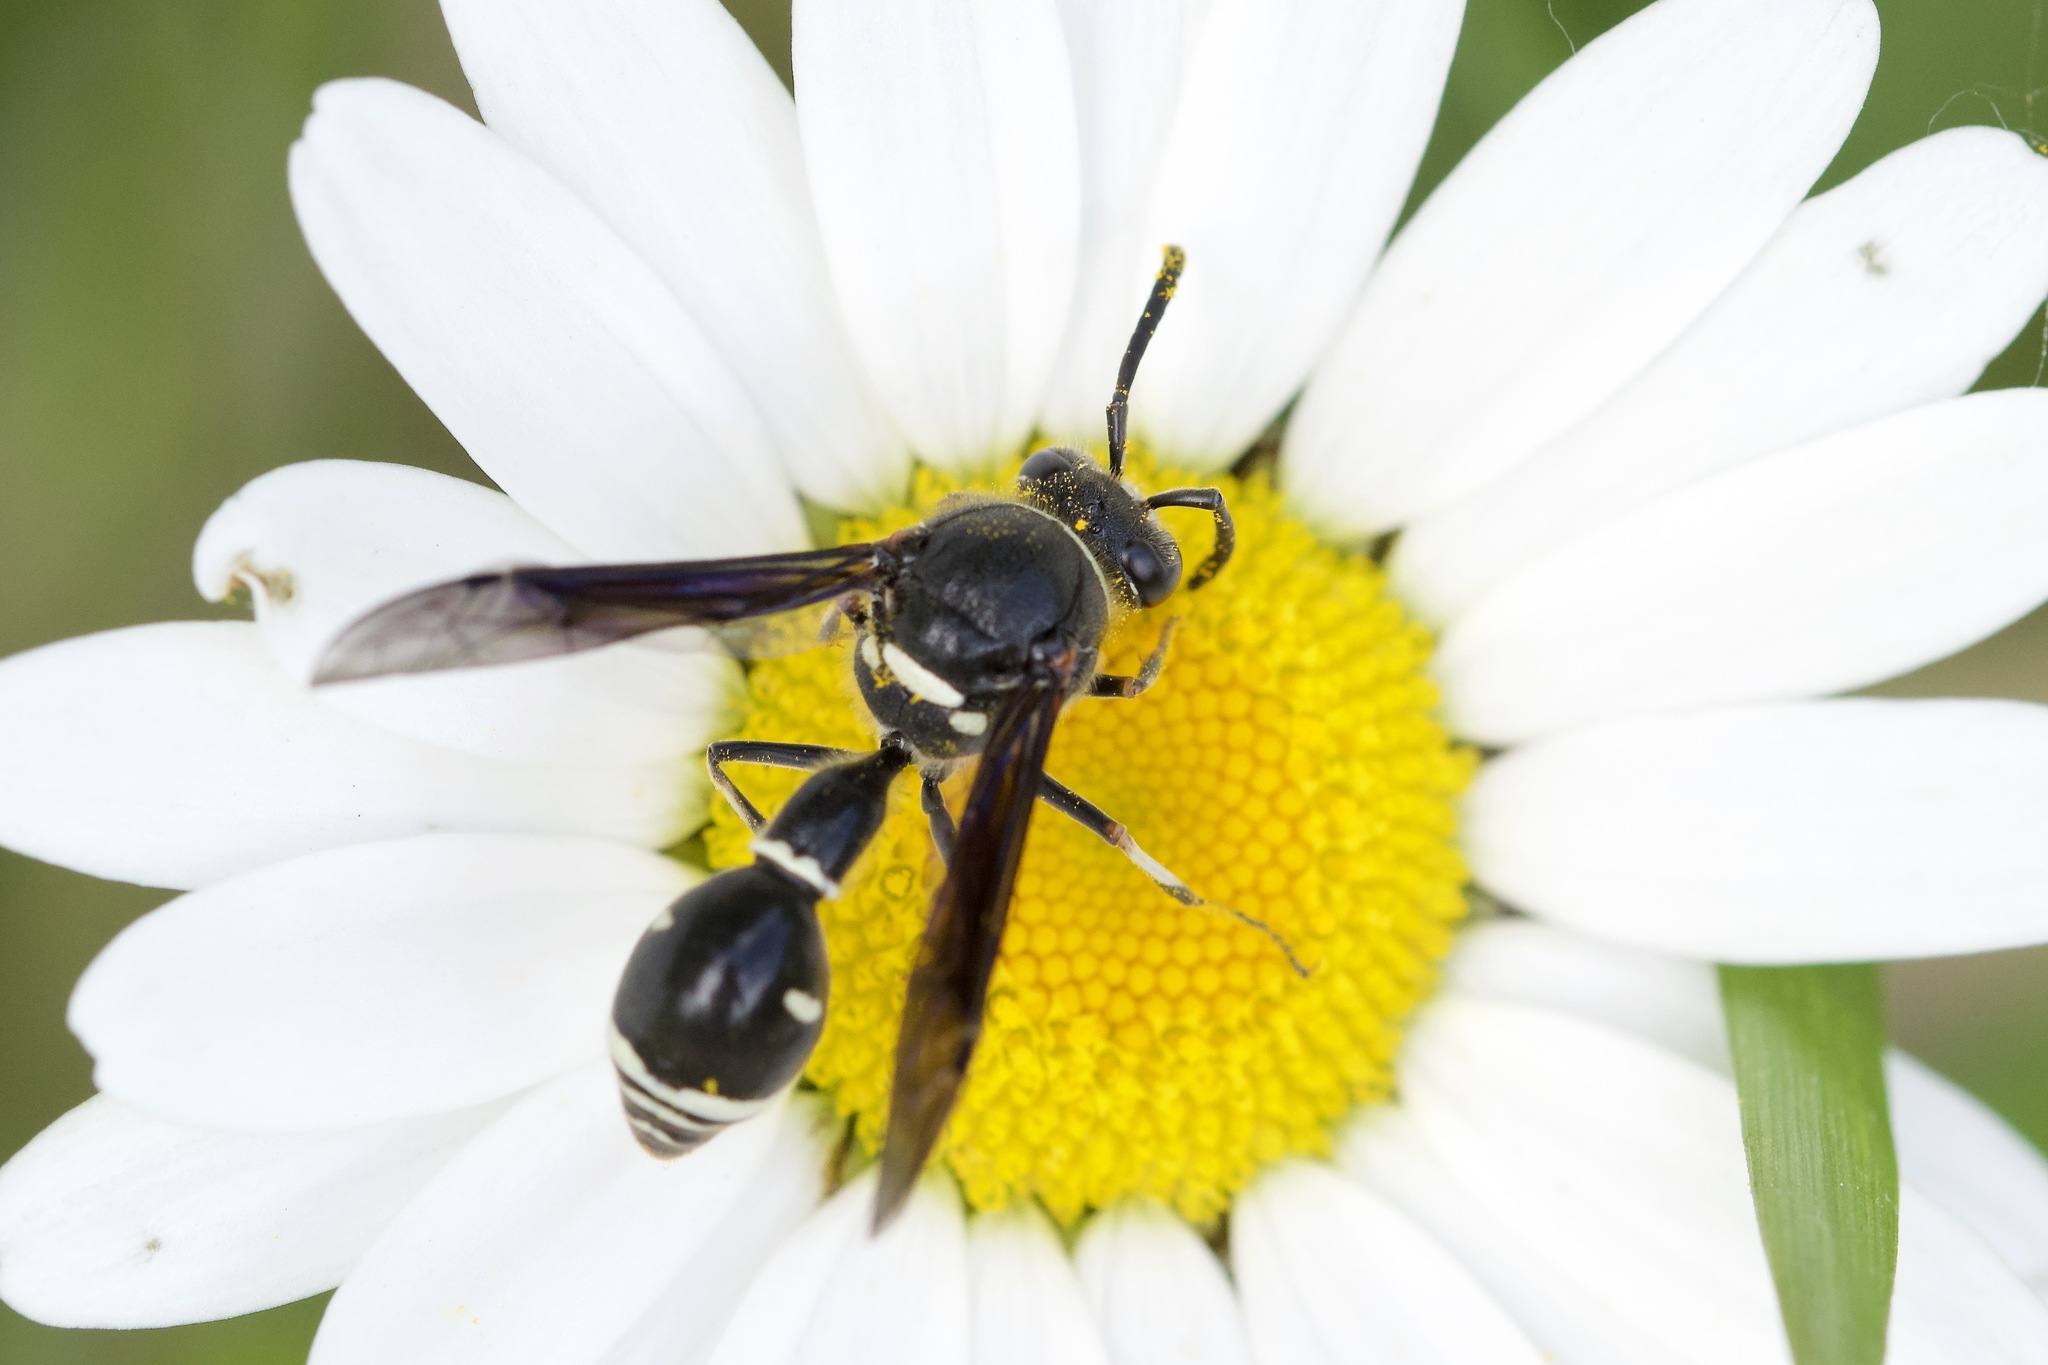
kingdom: Animalia
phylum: Arthropoda
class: Insecta
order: Hymenoptera
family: Vespidae
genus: Eumenes
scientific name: Eumenes fraternus
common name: Fraternal potter wasp
